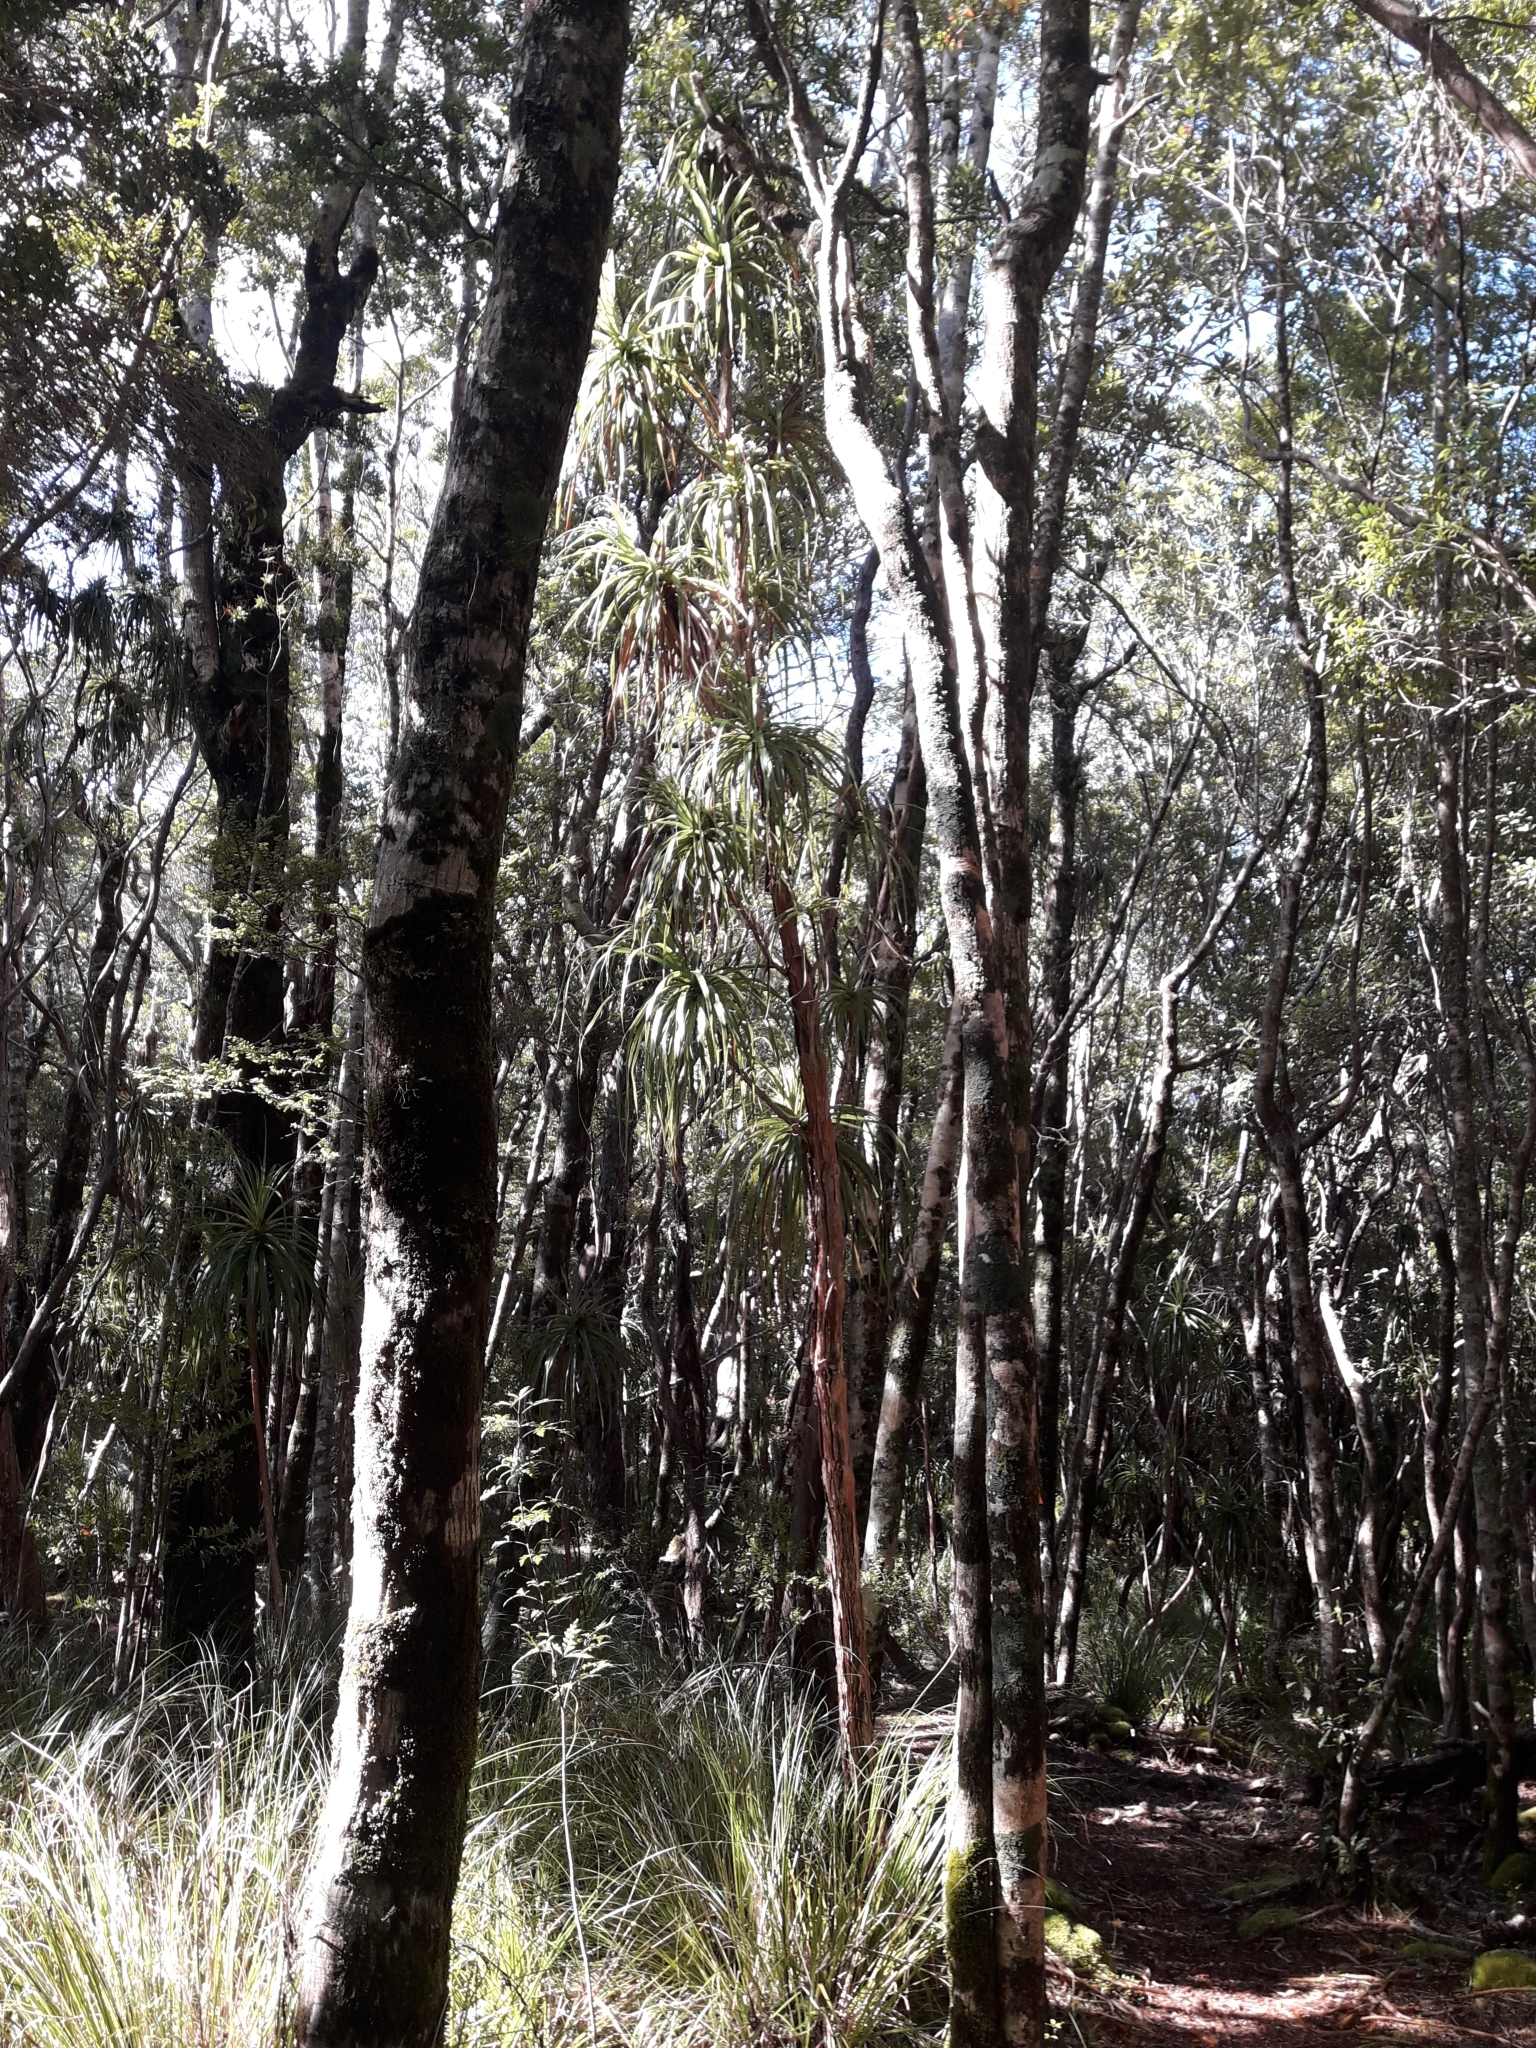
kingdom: Plantae
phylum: Tracheophyta
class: Magnoliopsida
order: Ericales
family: Ericaceae
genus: Dracophyllum
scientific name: Dracophyllum traversii
